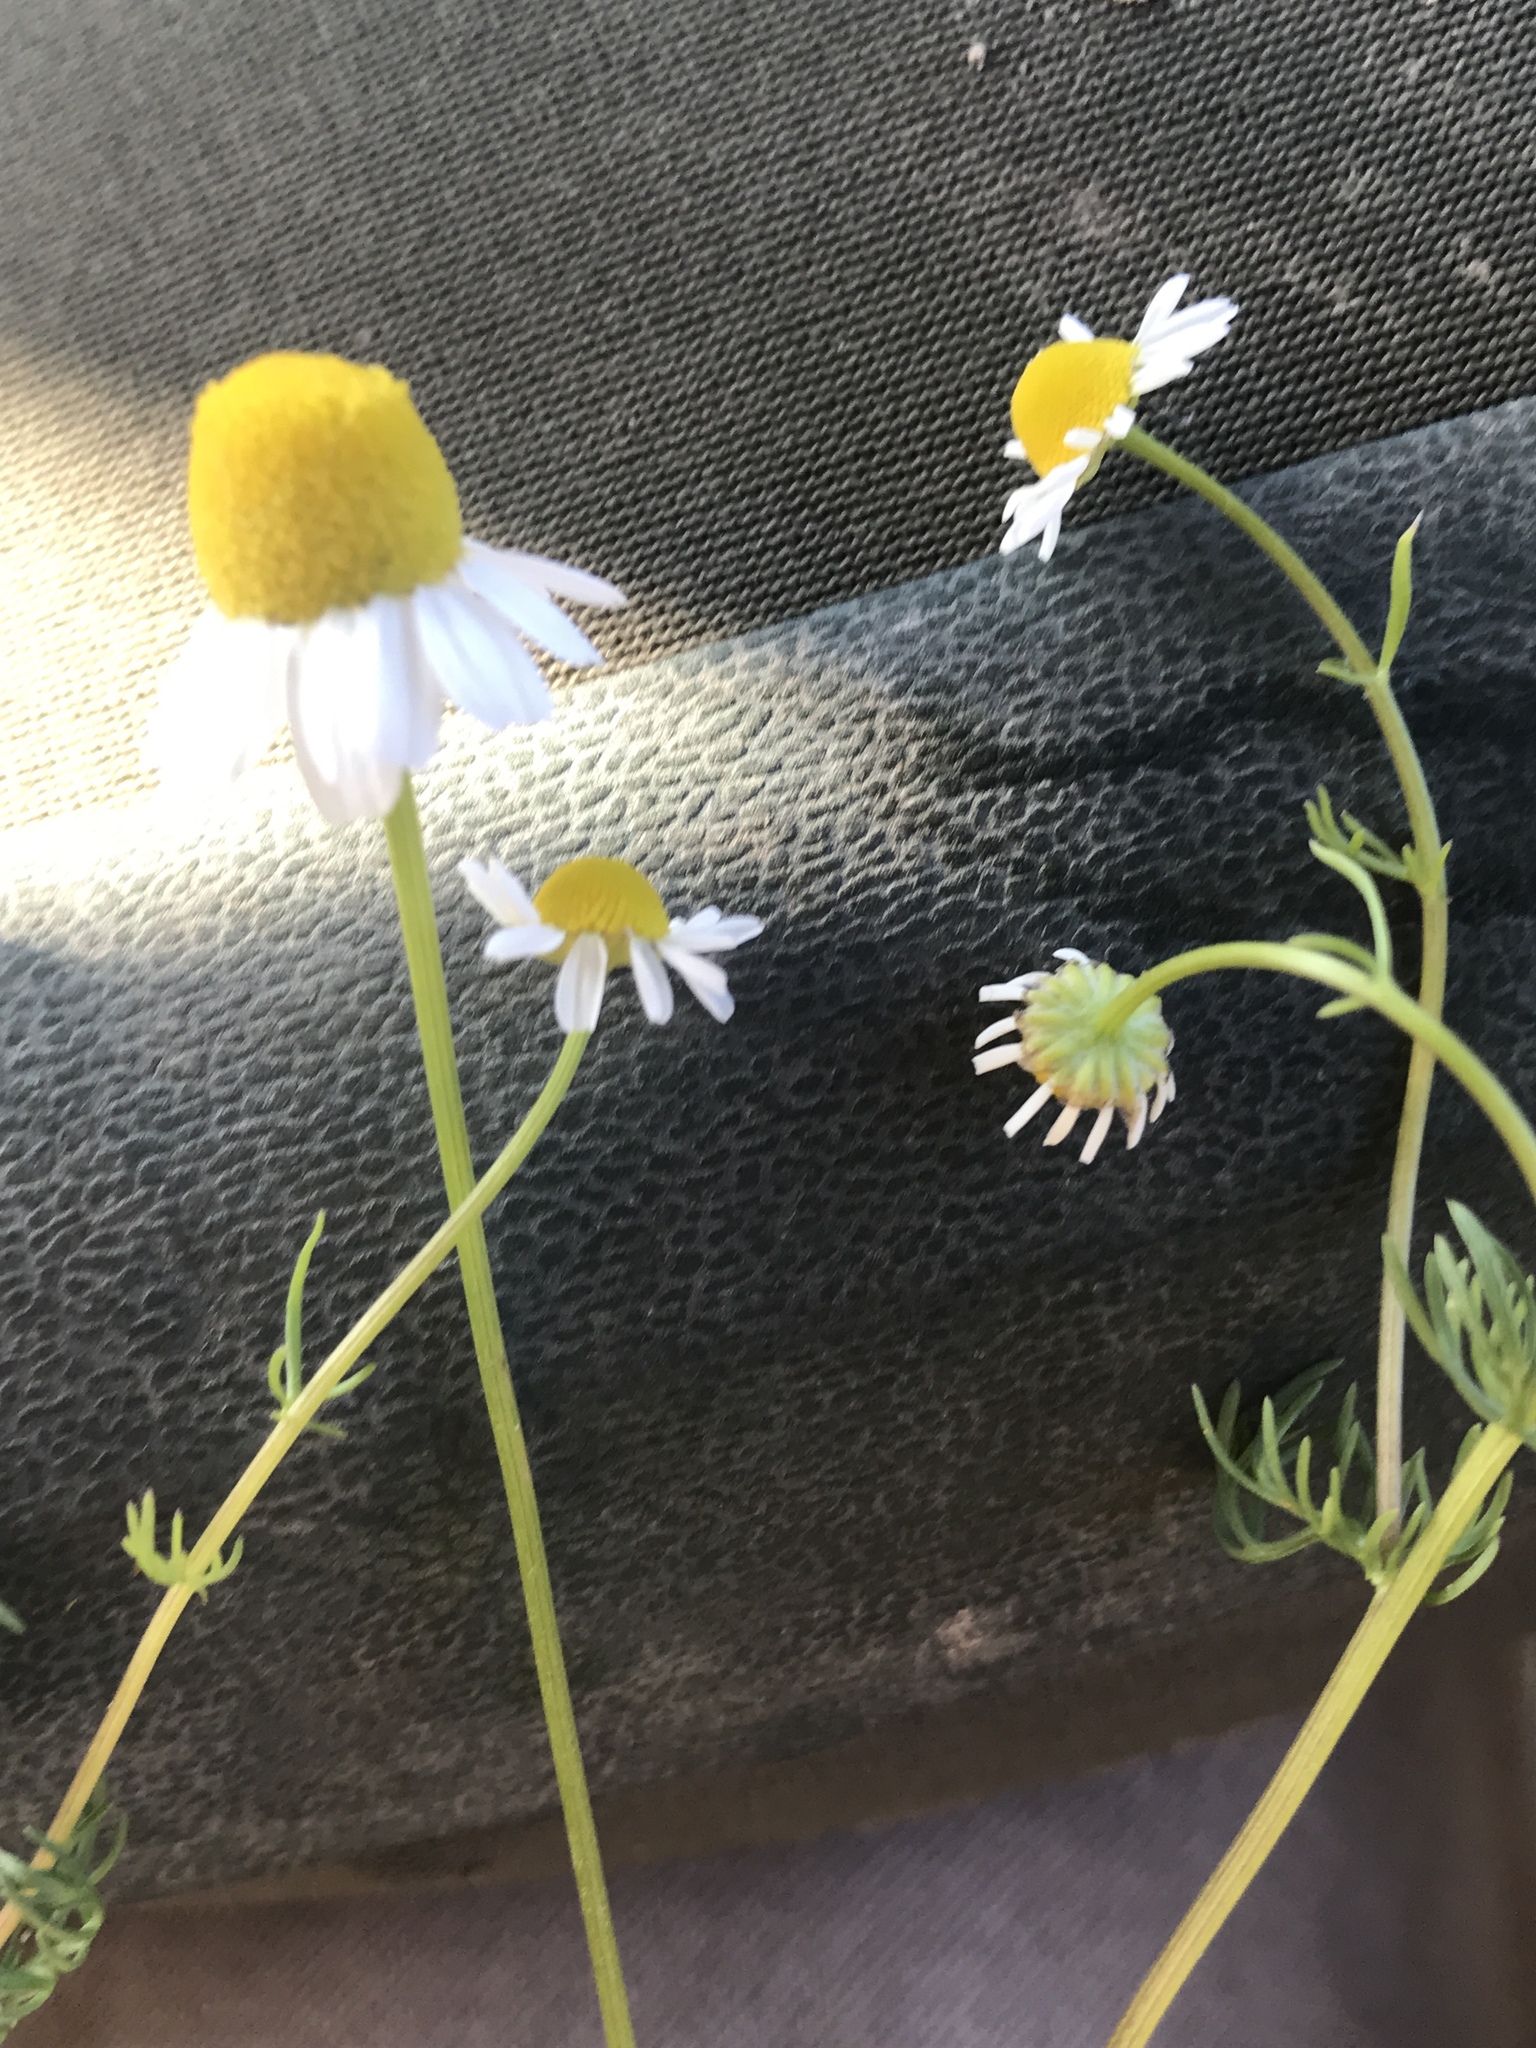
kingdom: Plantae
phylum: Tracheophyta
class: Magnoliopsida
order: Asterales
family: Asteraceae
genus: Matricaria
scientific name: Matricaria chamomilla
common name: Scented mayweed
